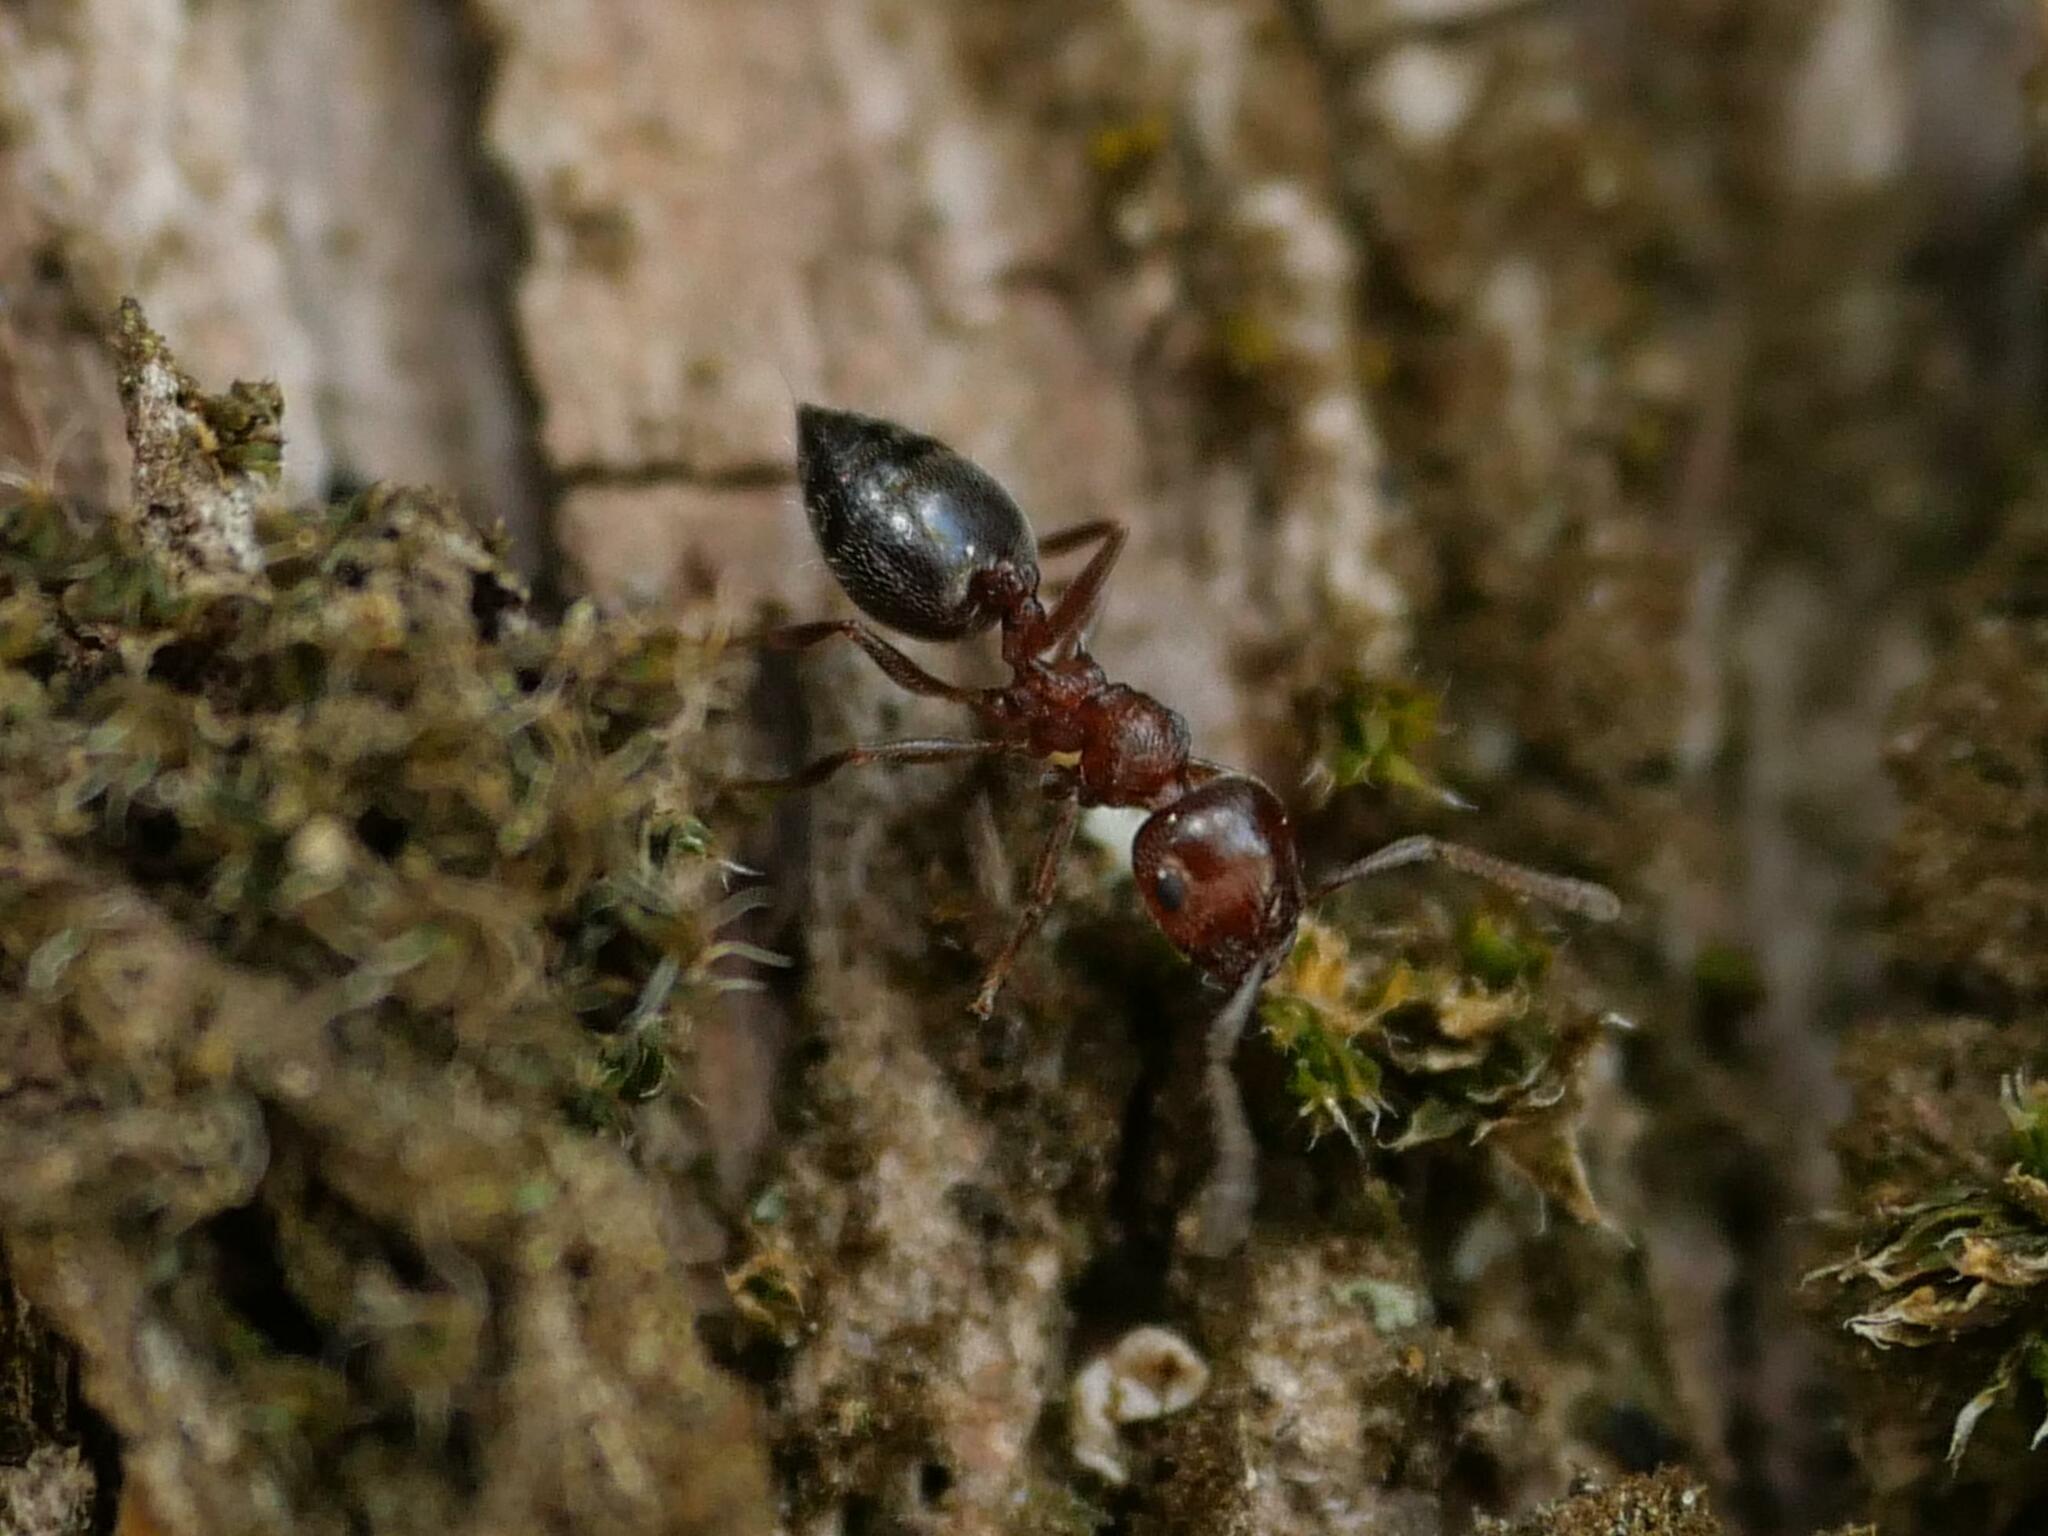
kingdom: Animalia
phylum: Arthropoda
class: Insecta
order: Hymenoptera
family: Formicidae
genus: Crematogaster
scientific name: Crematogaster schmidti
